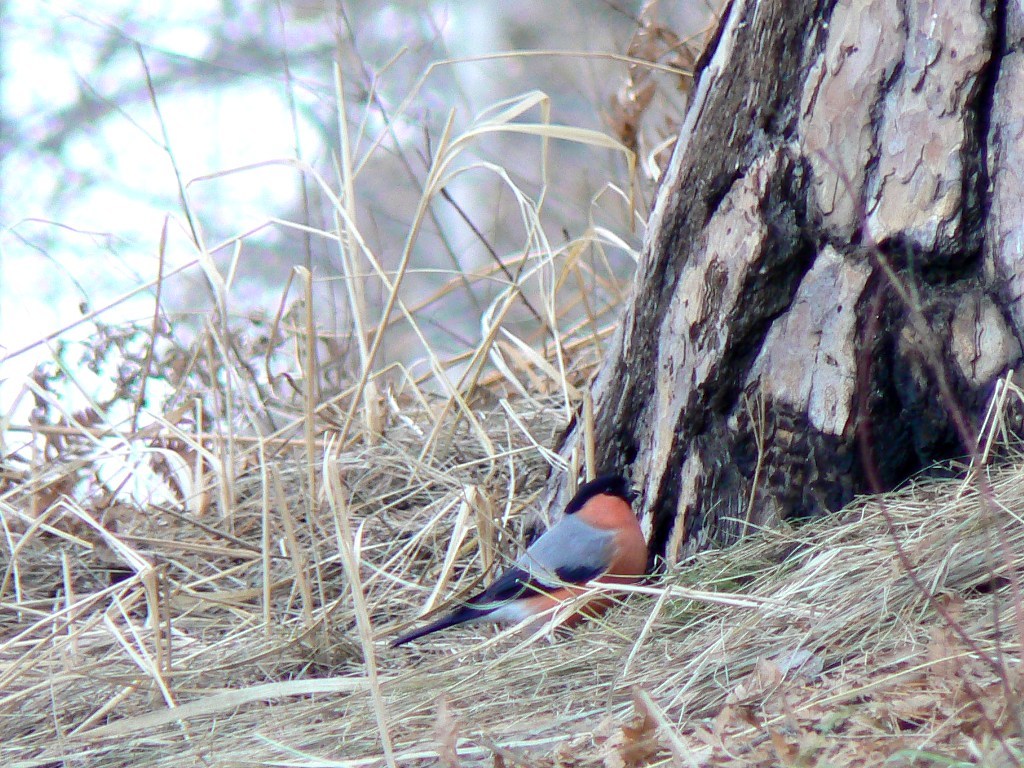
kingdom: Animalia
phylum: Chordata
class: Aves
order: Passeriformes
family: Fringillidae
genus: Pyrrhula
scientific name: Pyrrhula pyrrhula
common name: Eurasian bullfinch
